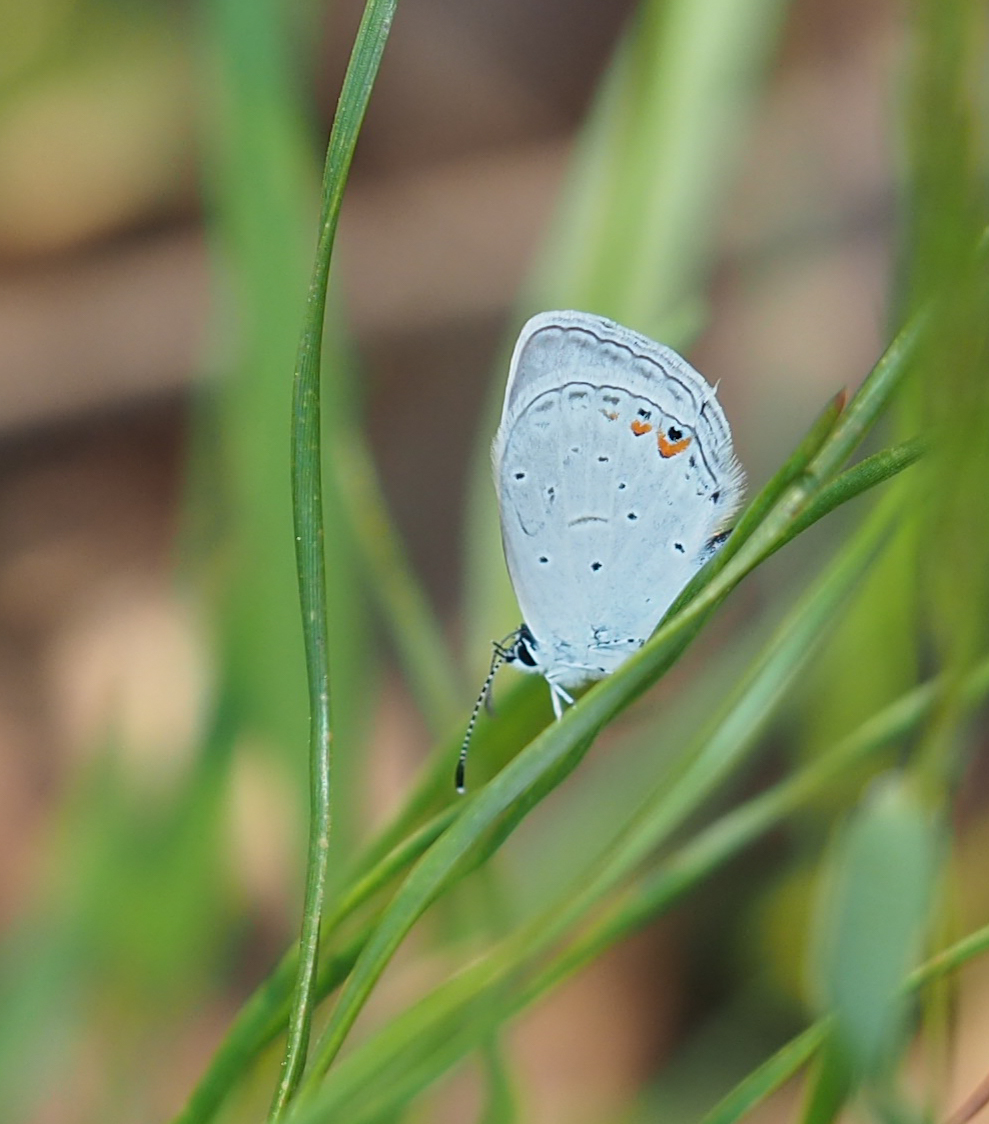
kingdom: Animalia
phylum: Arthropoda
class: Insecta
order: Lepidoptera
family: Lycaenidae
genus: Elkalyce
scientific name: Elkalyce comyntas
